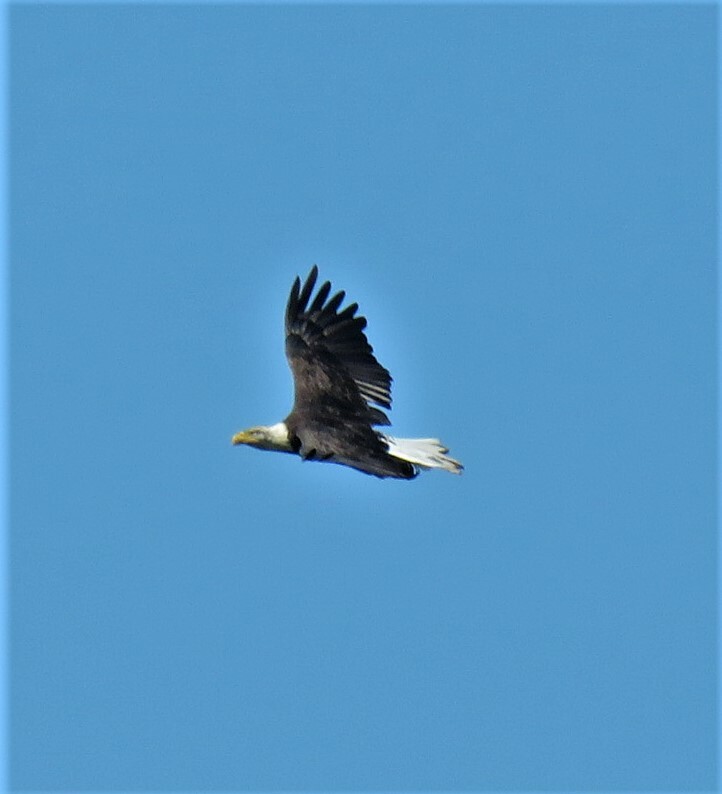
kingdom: Animalia
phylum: Chordata
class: Aves
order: Accipitriformes
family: Accipitridae
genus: Haliaeetus
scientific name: Haliaeetus leucocephalus
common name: Bald eagle
